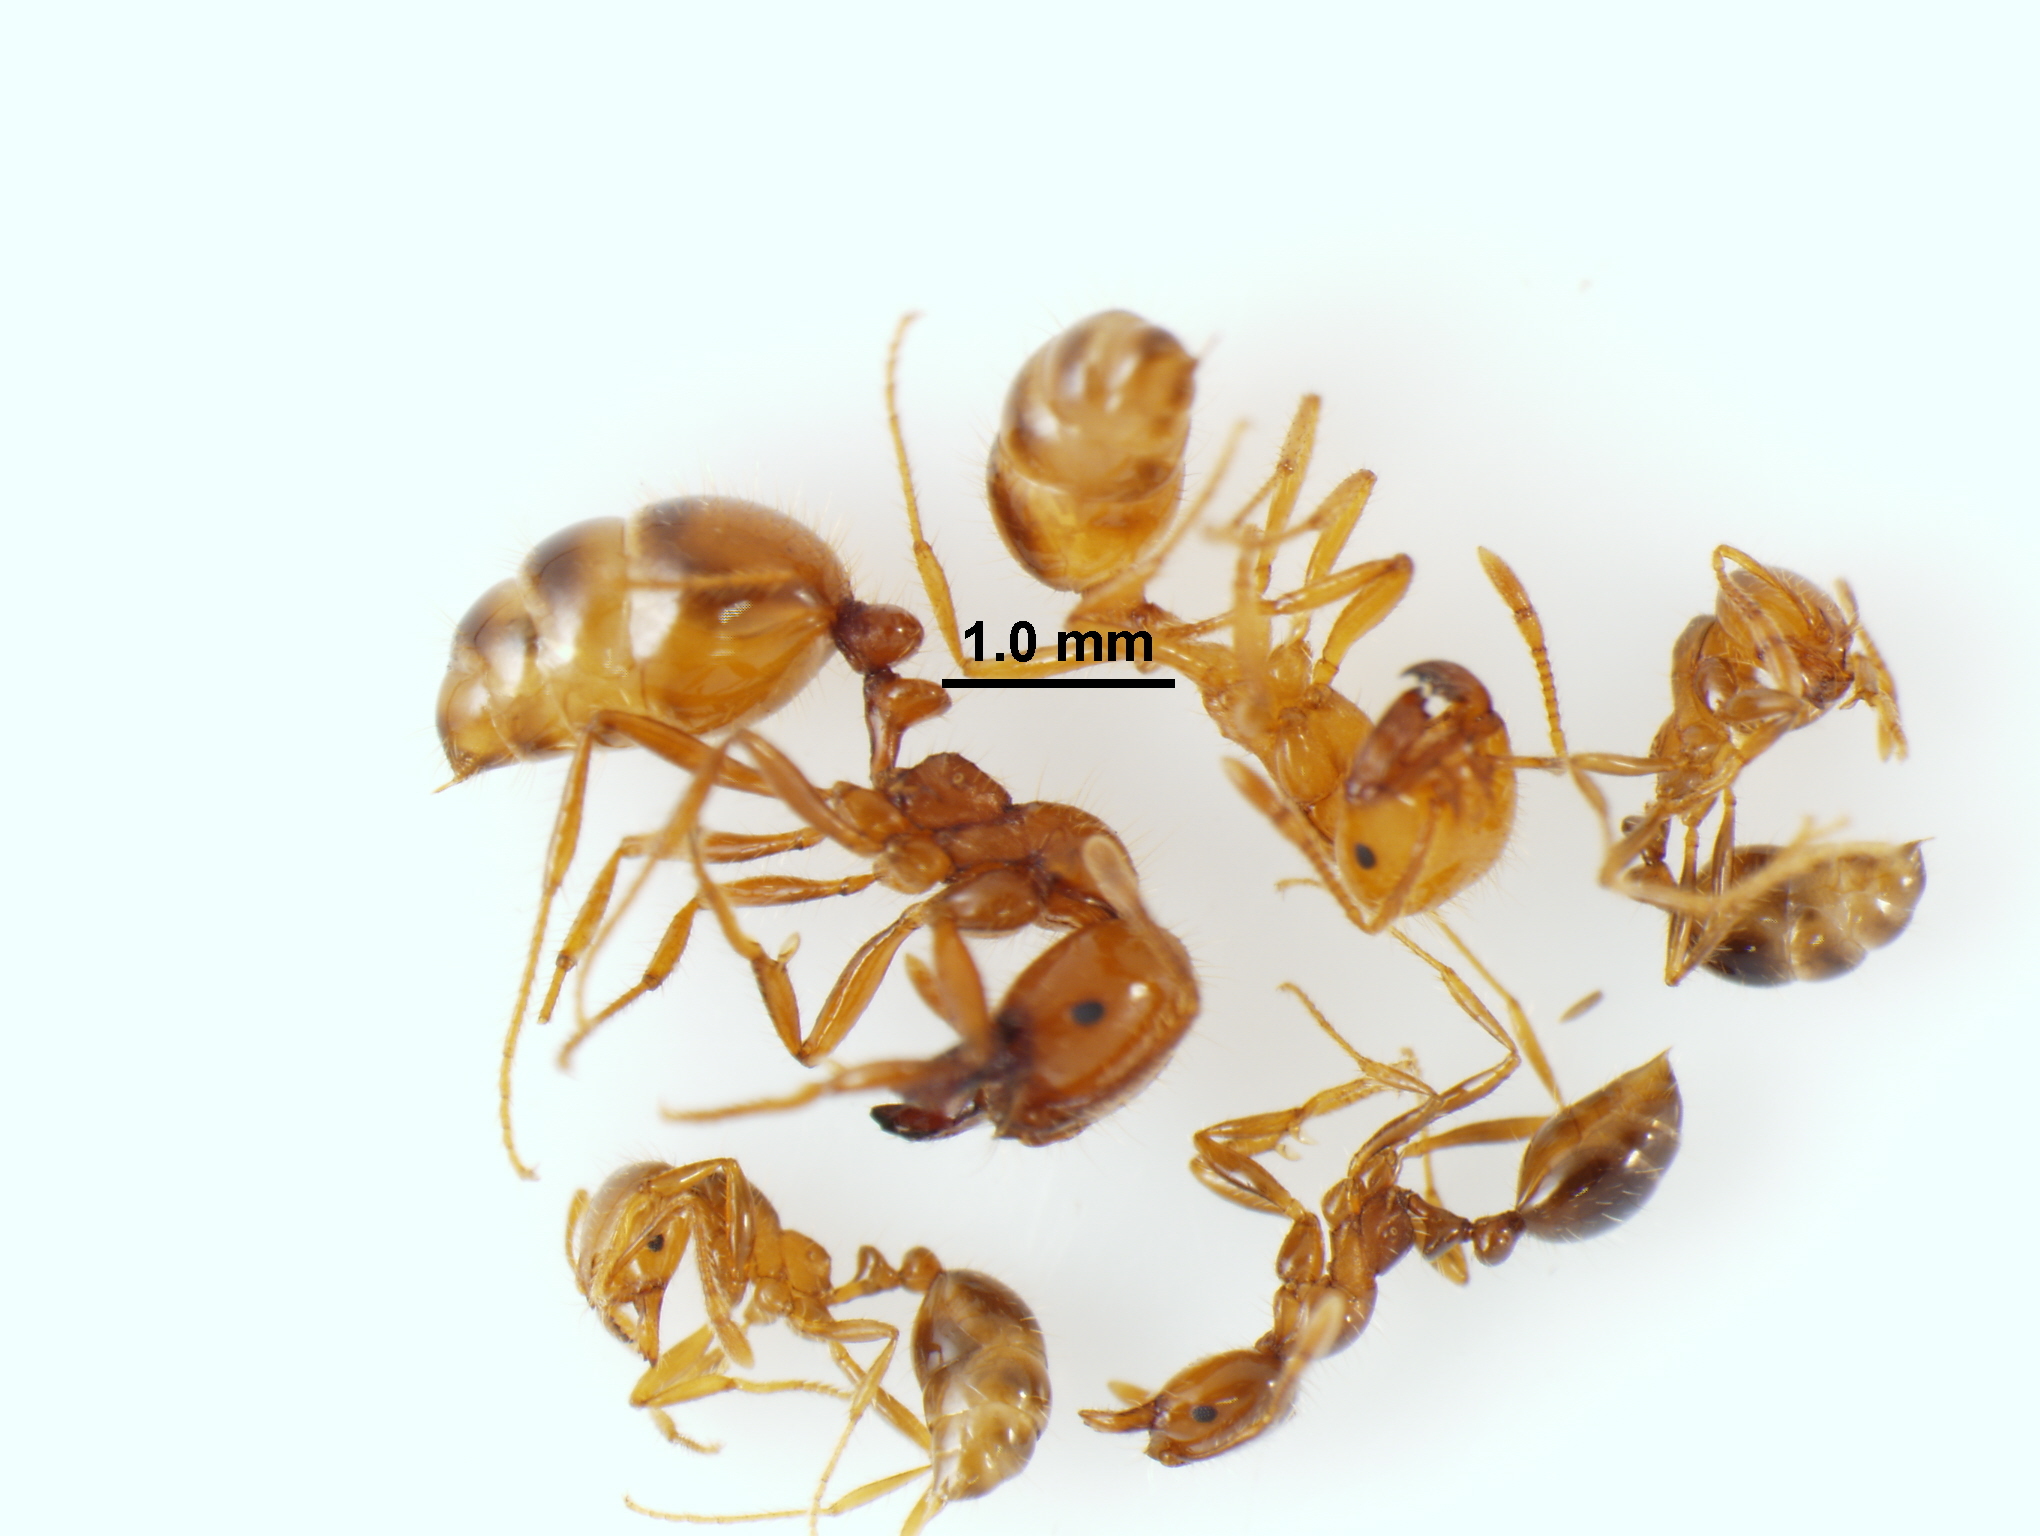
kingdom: Animalia
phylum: Arthropoda
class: Insecta
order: Hymenoptera
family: Formicidae
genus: Solenopsis
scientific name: Solenopsis geminata
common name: Tropical fire ant
